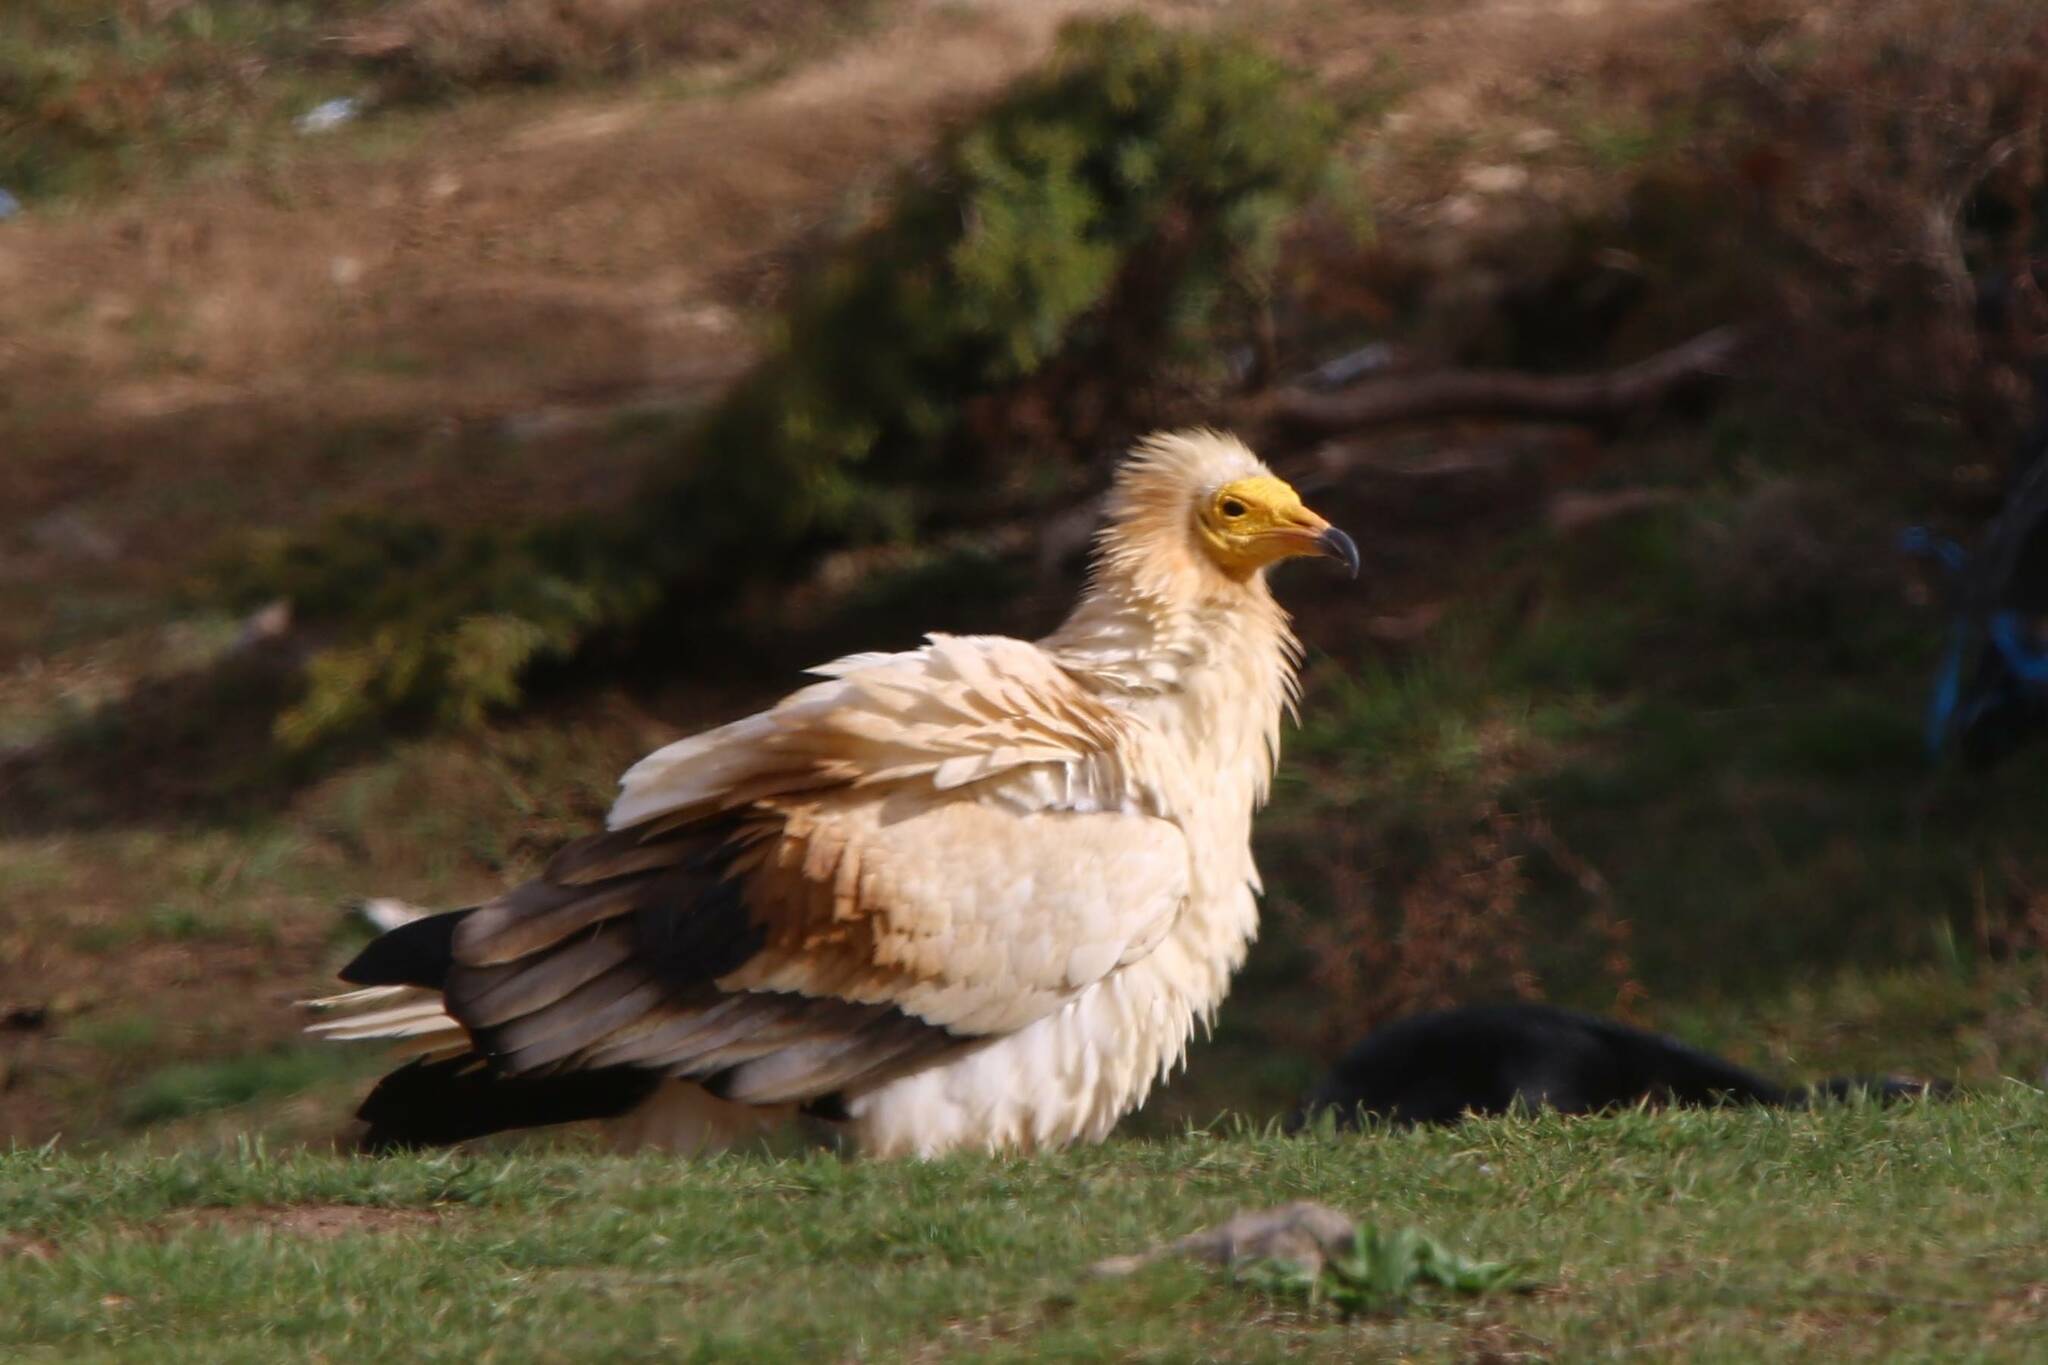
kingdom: Animalia
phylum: Chordata
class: Aves
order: Accipitriformes
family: Accipitridae
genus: Neophron
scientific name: Neophron percnopterus
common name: Egyptian vulture
